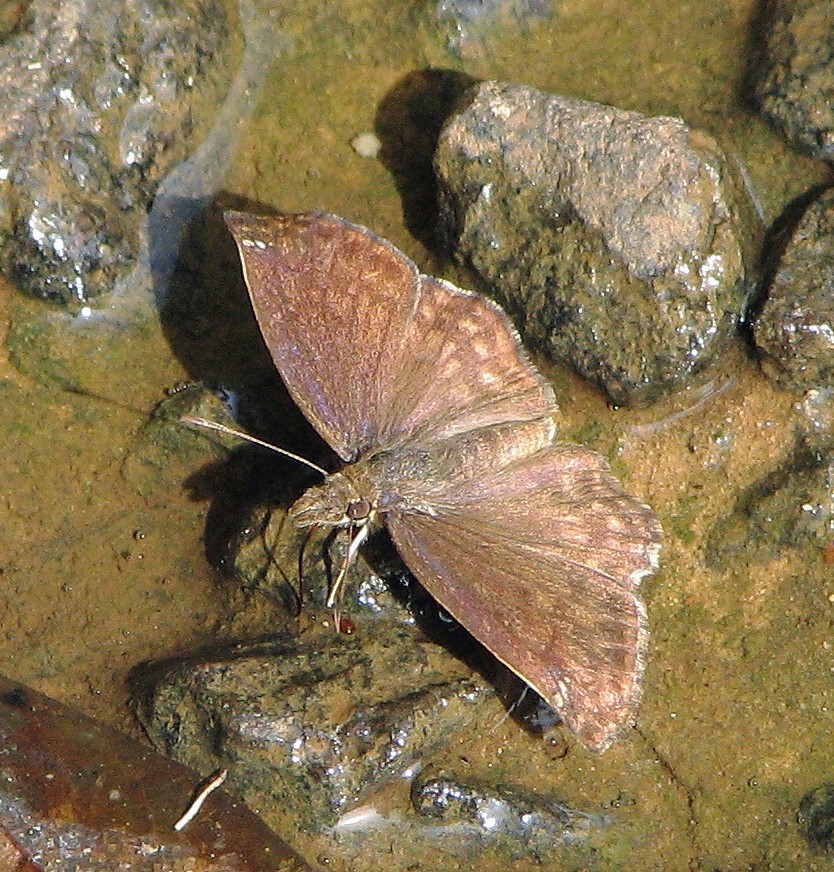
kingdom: Animalia
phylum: Arthropoda
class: Insecta
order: Lepidoptera
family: Hesperiidae
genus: Anisochoria
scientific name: Anisochoria sublimbata
